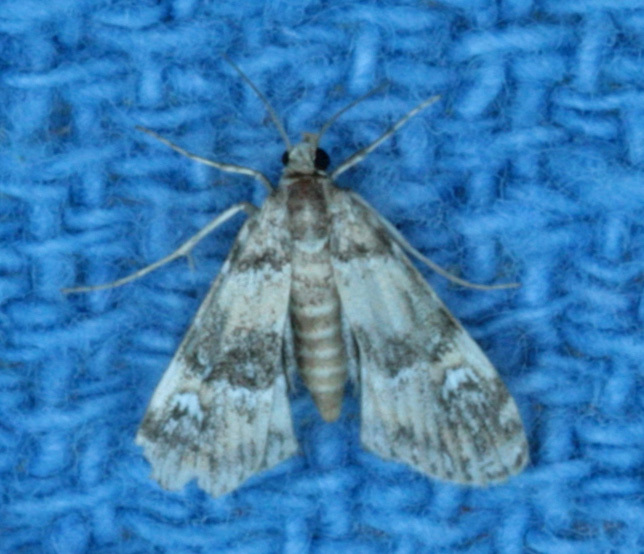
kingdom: Animalia
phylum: Arthropoda
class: Insecta
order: Lepidoptera
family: Crambidae
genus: Elophila
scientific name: Elophila obliteralis
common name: Waterlily leafcutter moth
